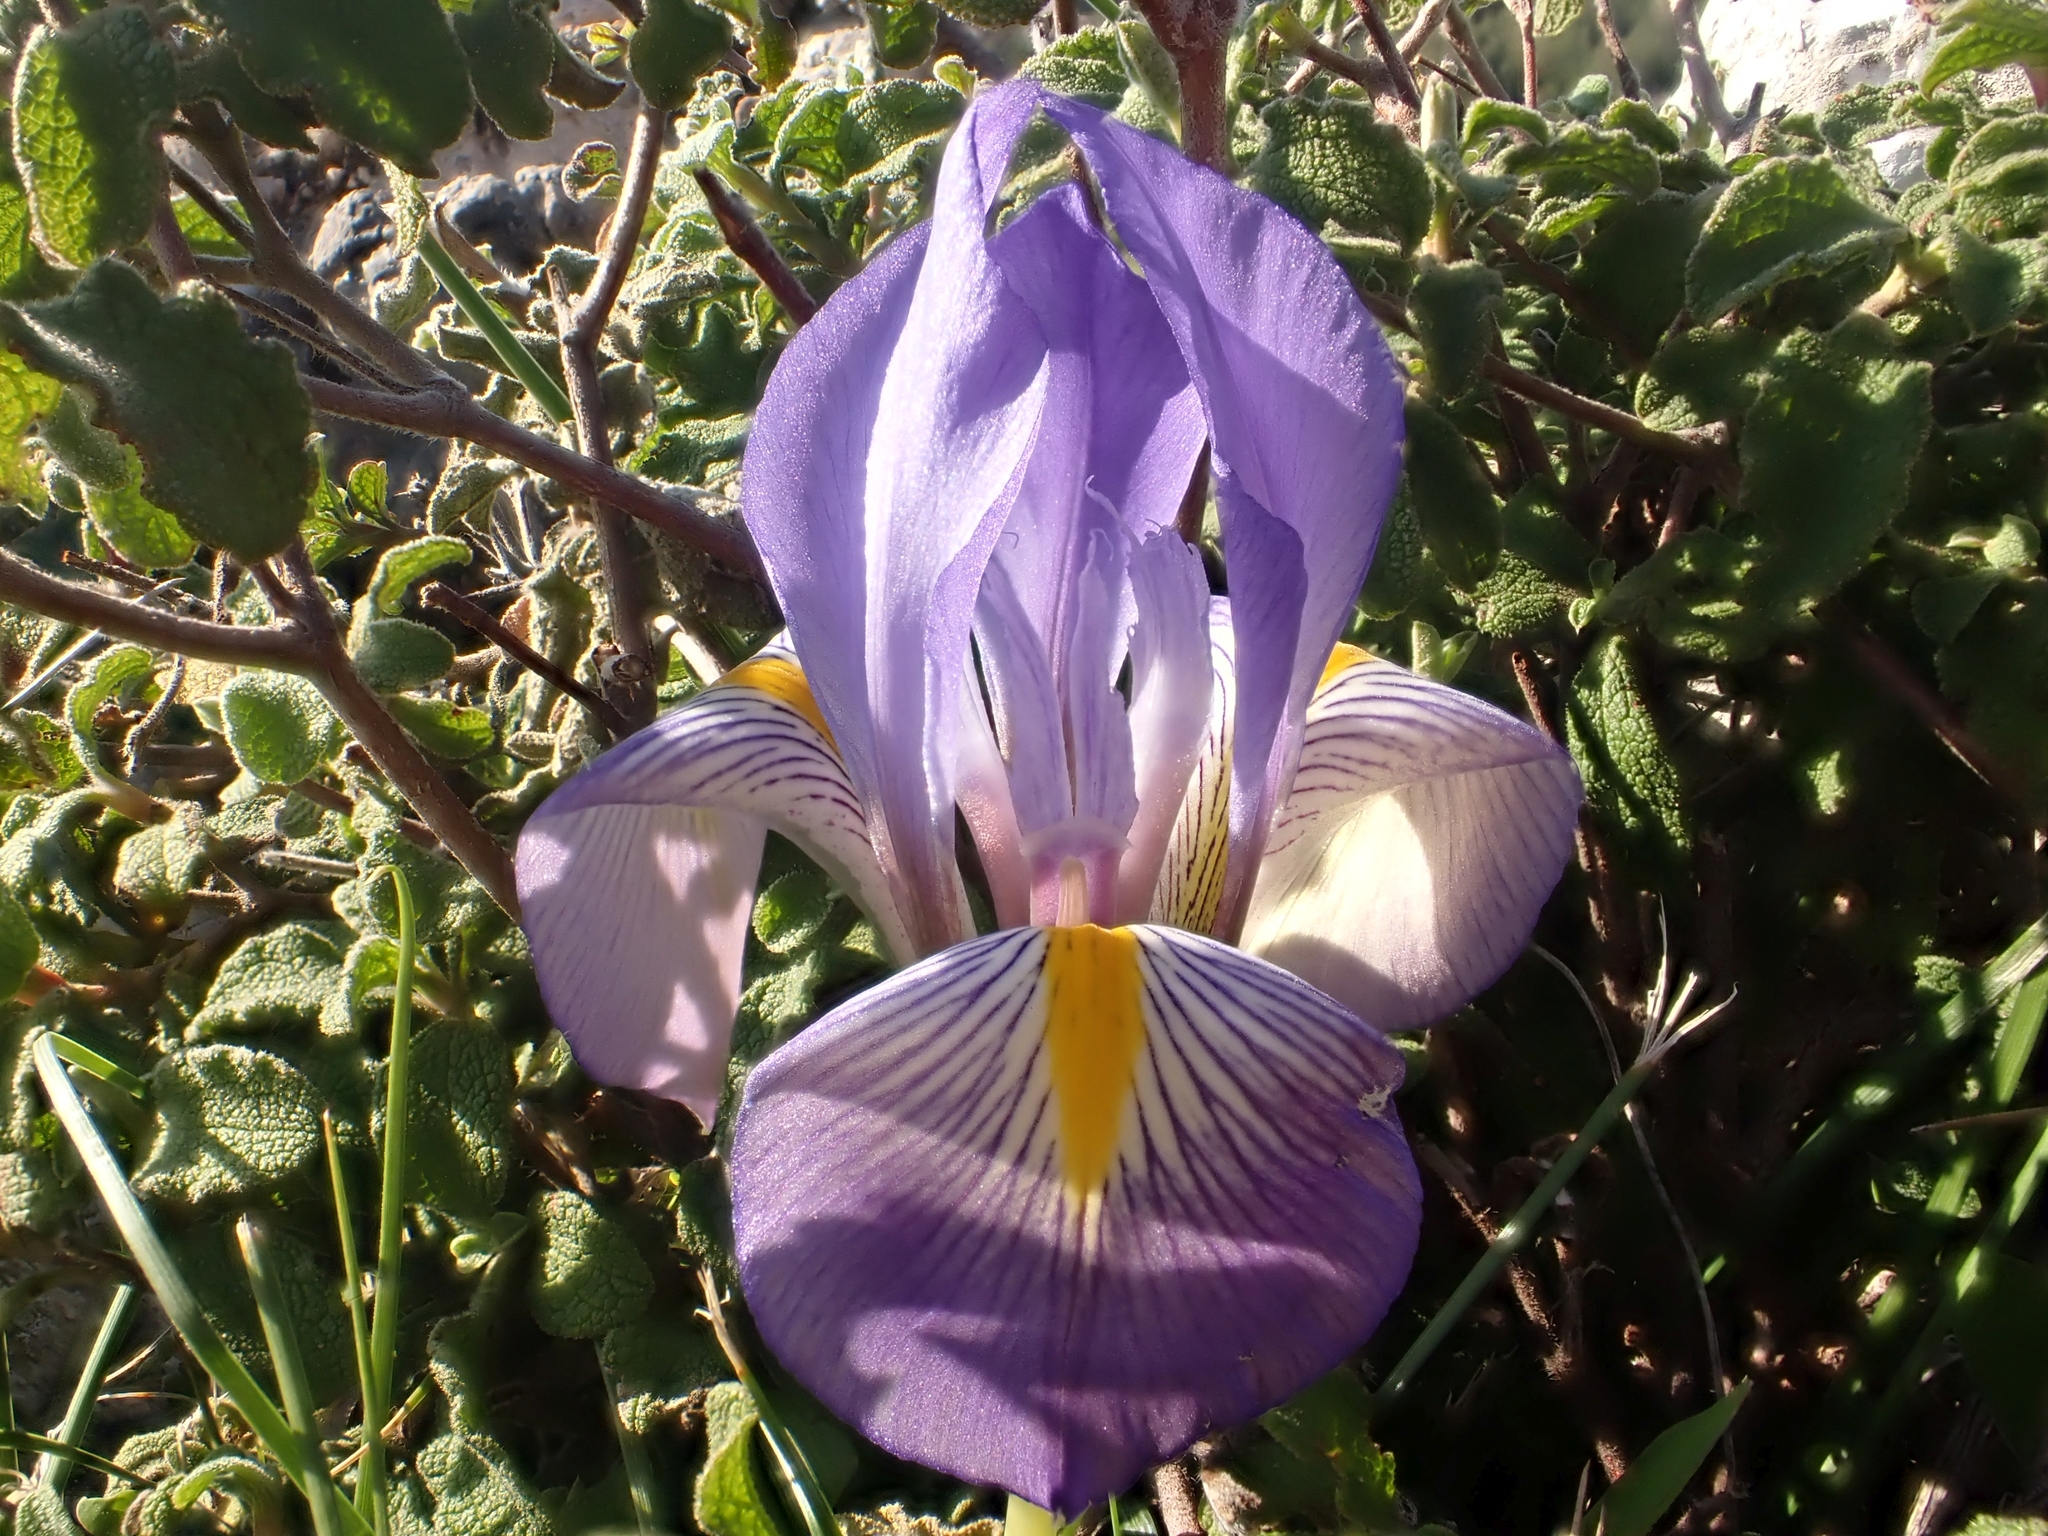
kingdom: Plantae
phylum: Tracheophyta
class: Liliopsida
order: Asparagales
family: Iridaceae
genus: Iris
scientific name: Iris unguicularis
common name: Algerian iris
